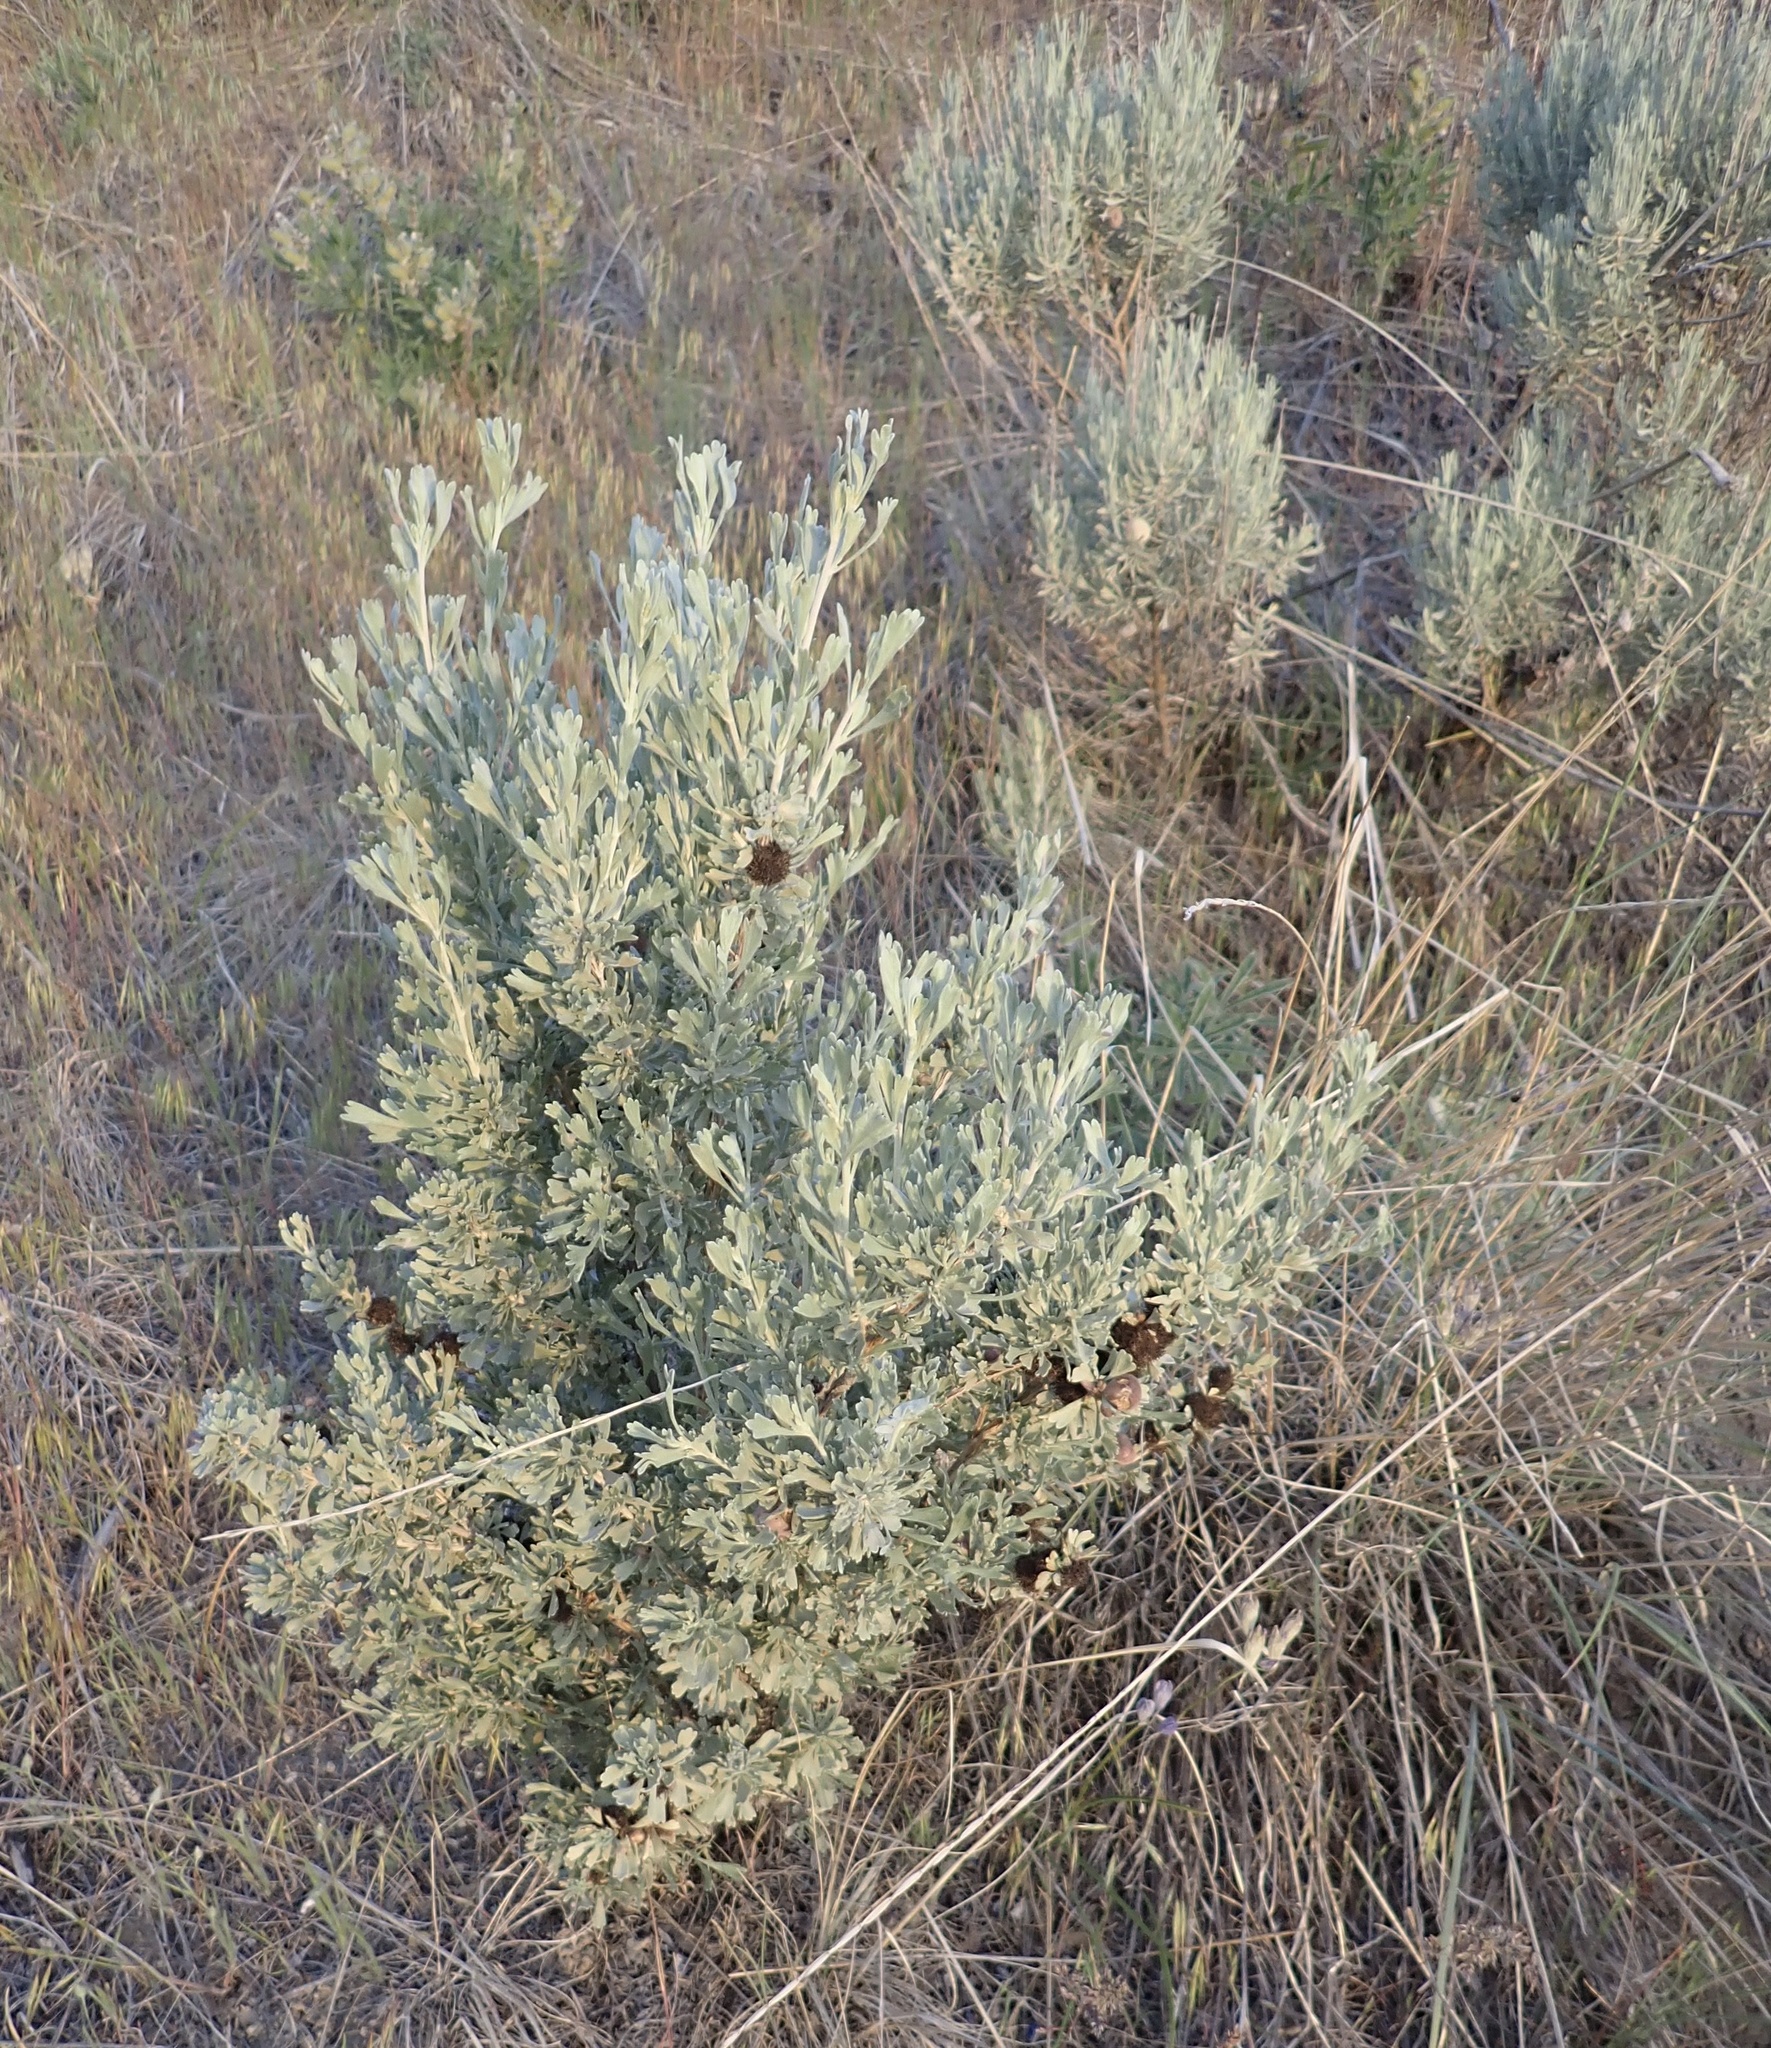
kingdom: Plantae
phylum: Tracheophyta
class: Magnoliopsida
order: Asterales
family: Asteraceae
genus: Artemisia
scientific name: Artemisia tridentata
